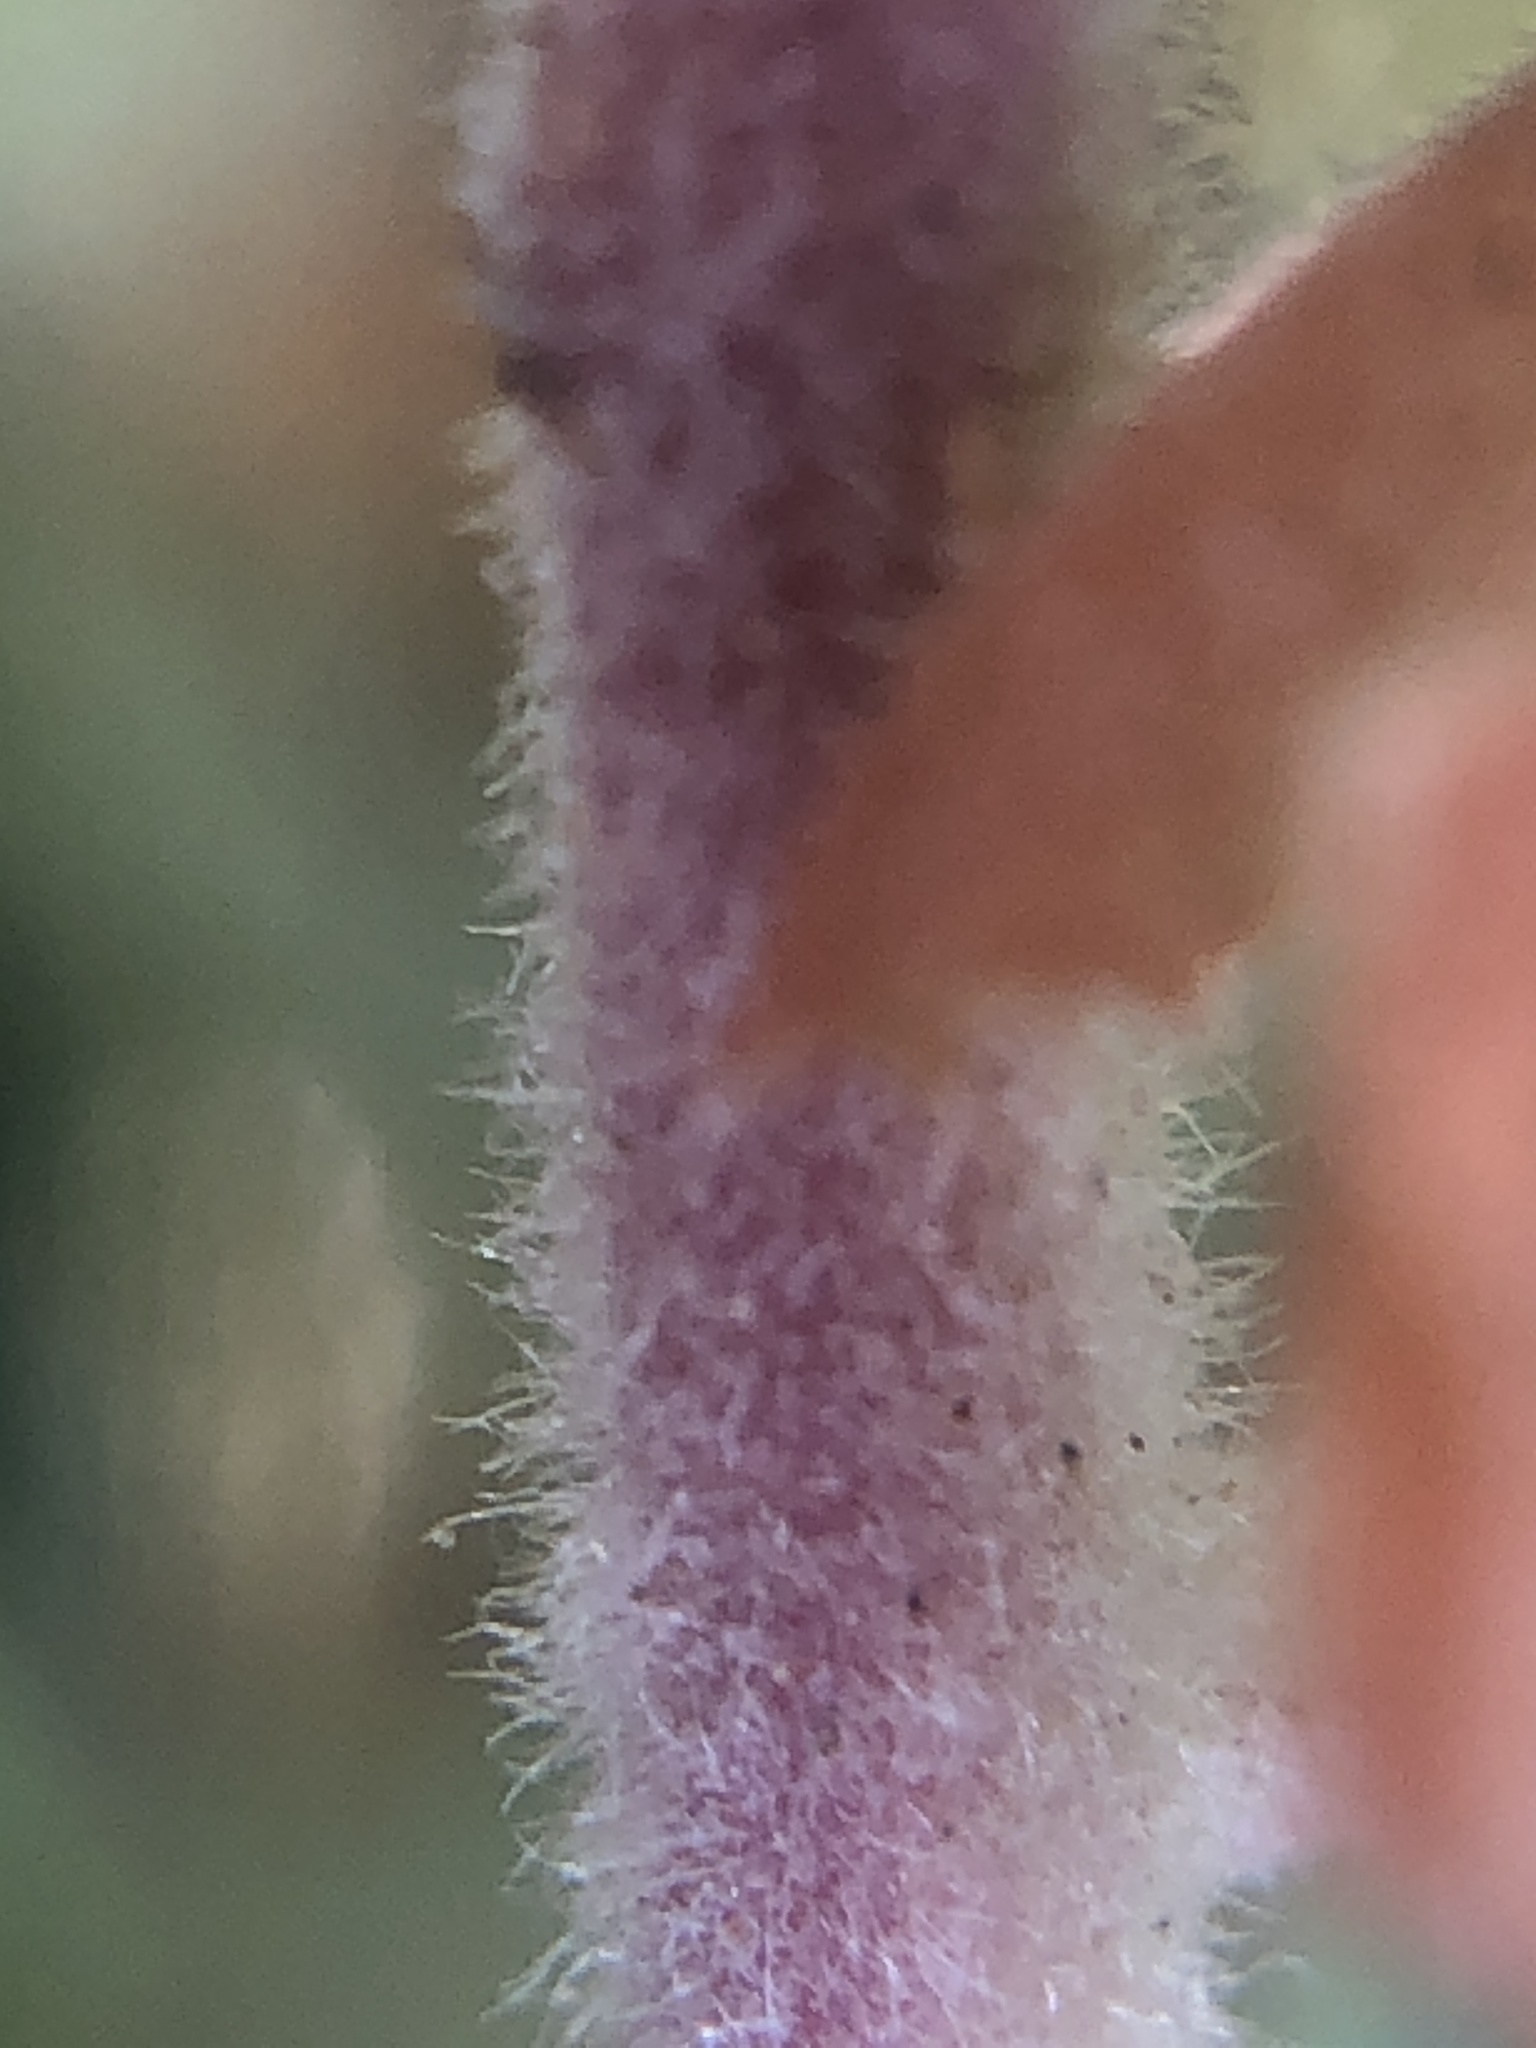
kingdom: Plantae
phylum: Tracheophyta
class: Magnoliopsida
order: Ericales
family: Ericaceae
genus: Arctostaphylos
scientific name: Arctostaphylos glandulosa
